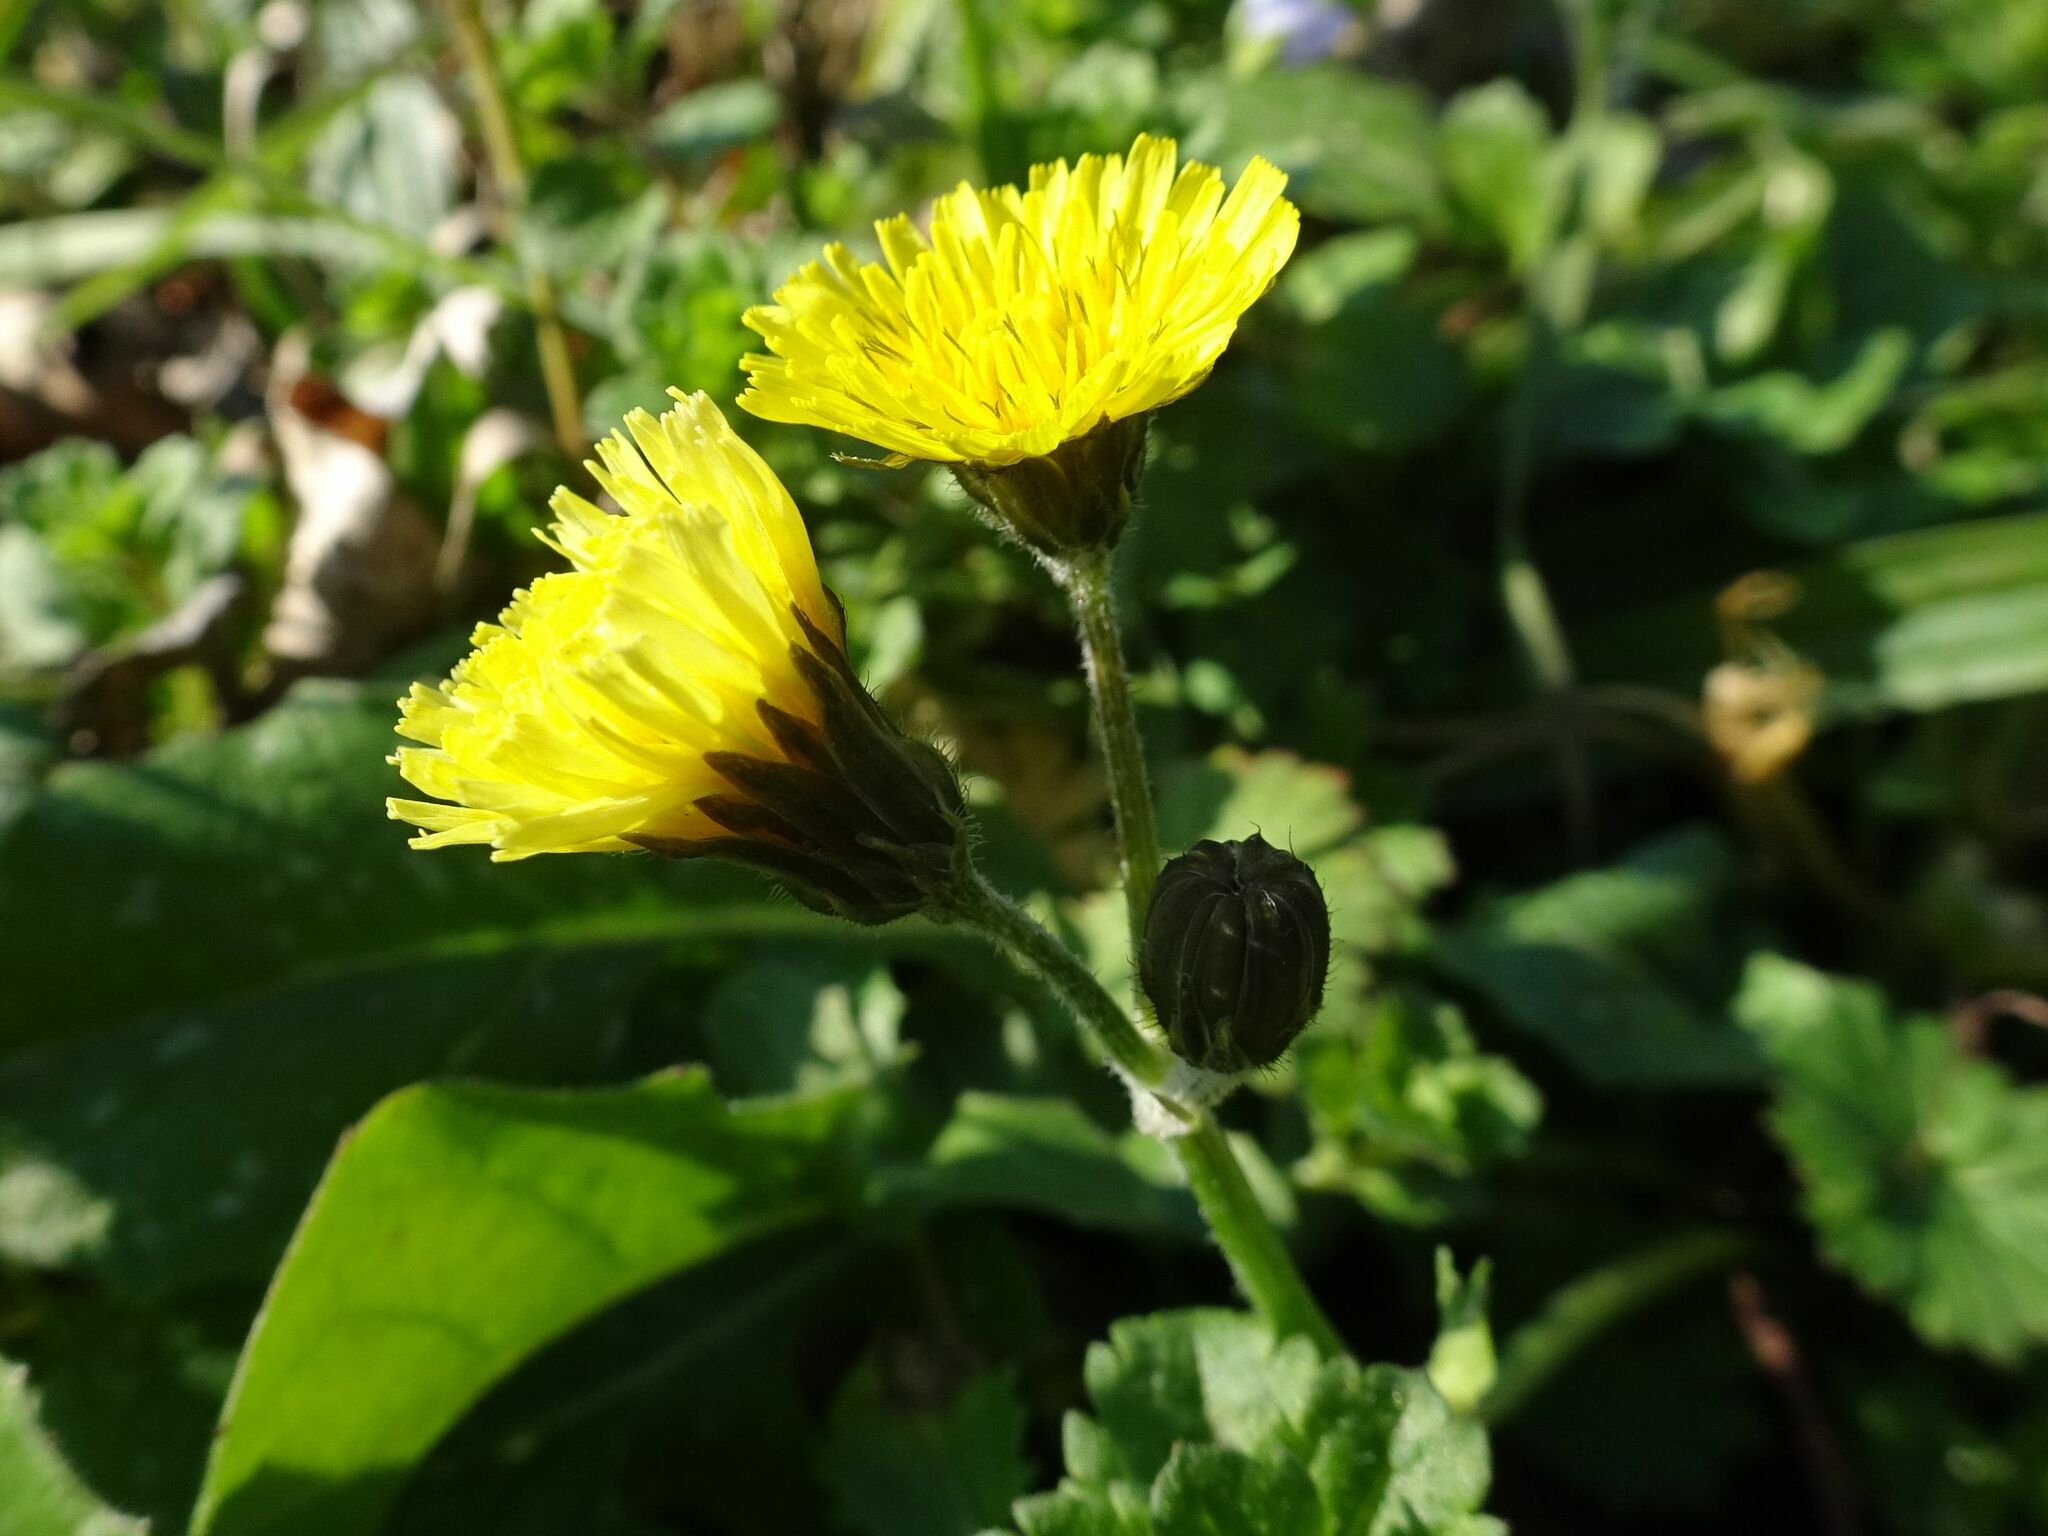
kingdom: Plantae
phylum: Tracheophyta
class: Magnoliopsida
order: Asterales
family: Asteraceae
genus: Crepis
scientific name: Crepis sancta
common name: Hawk's-beard
